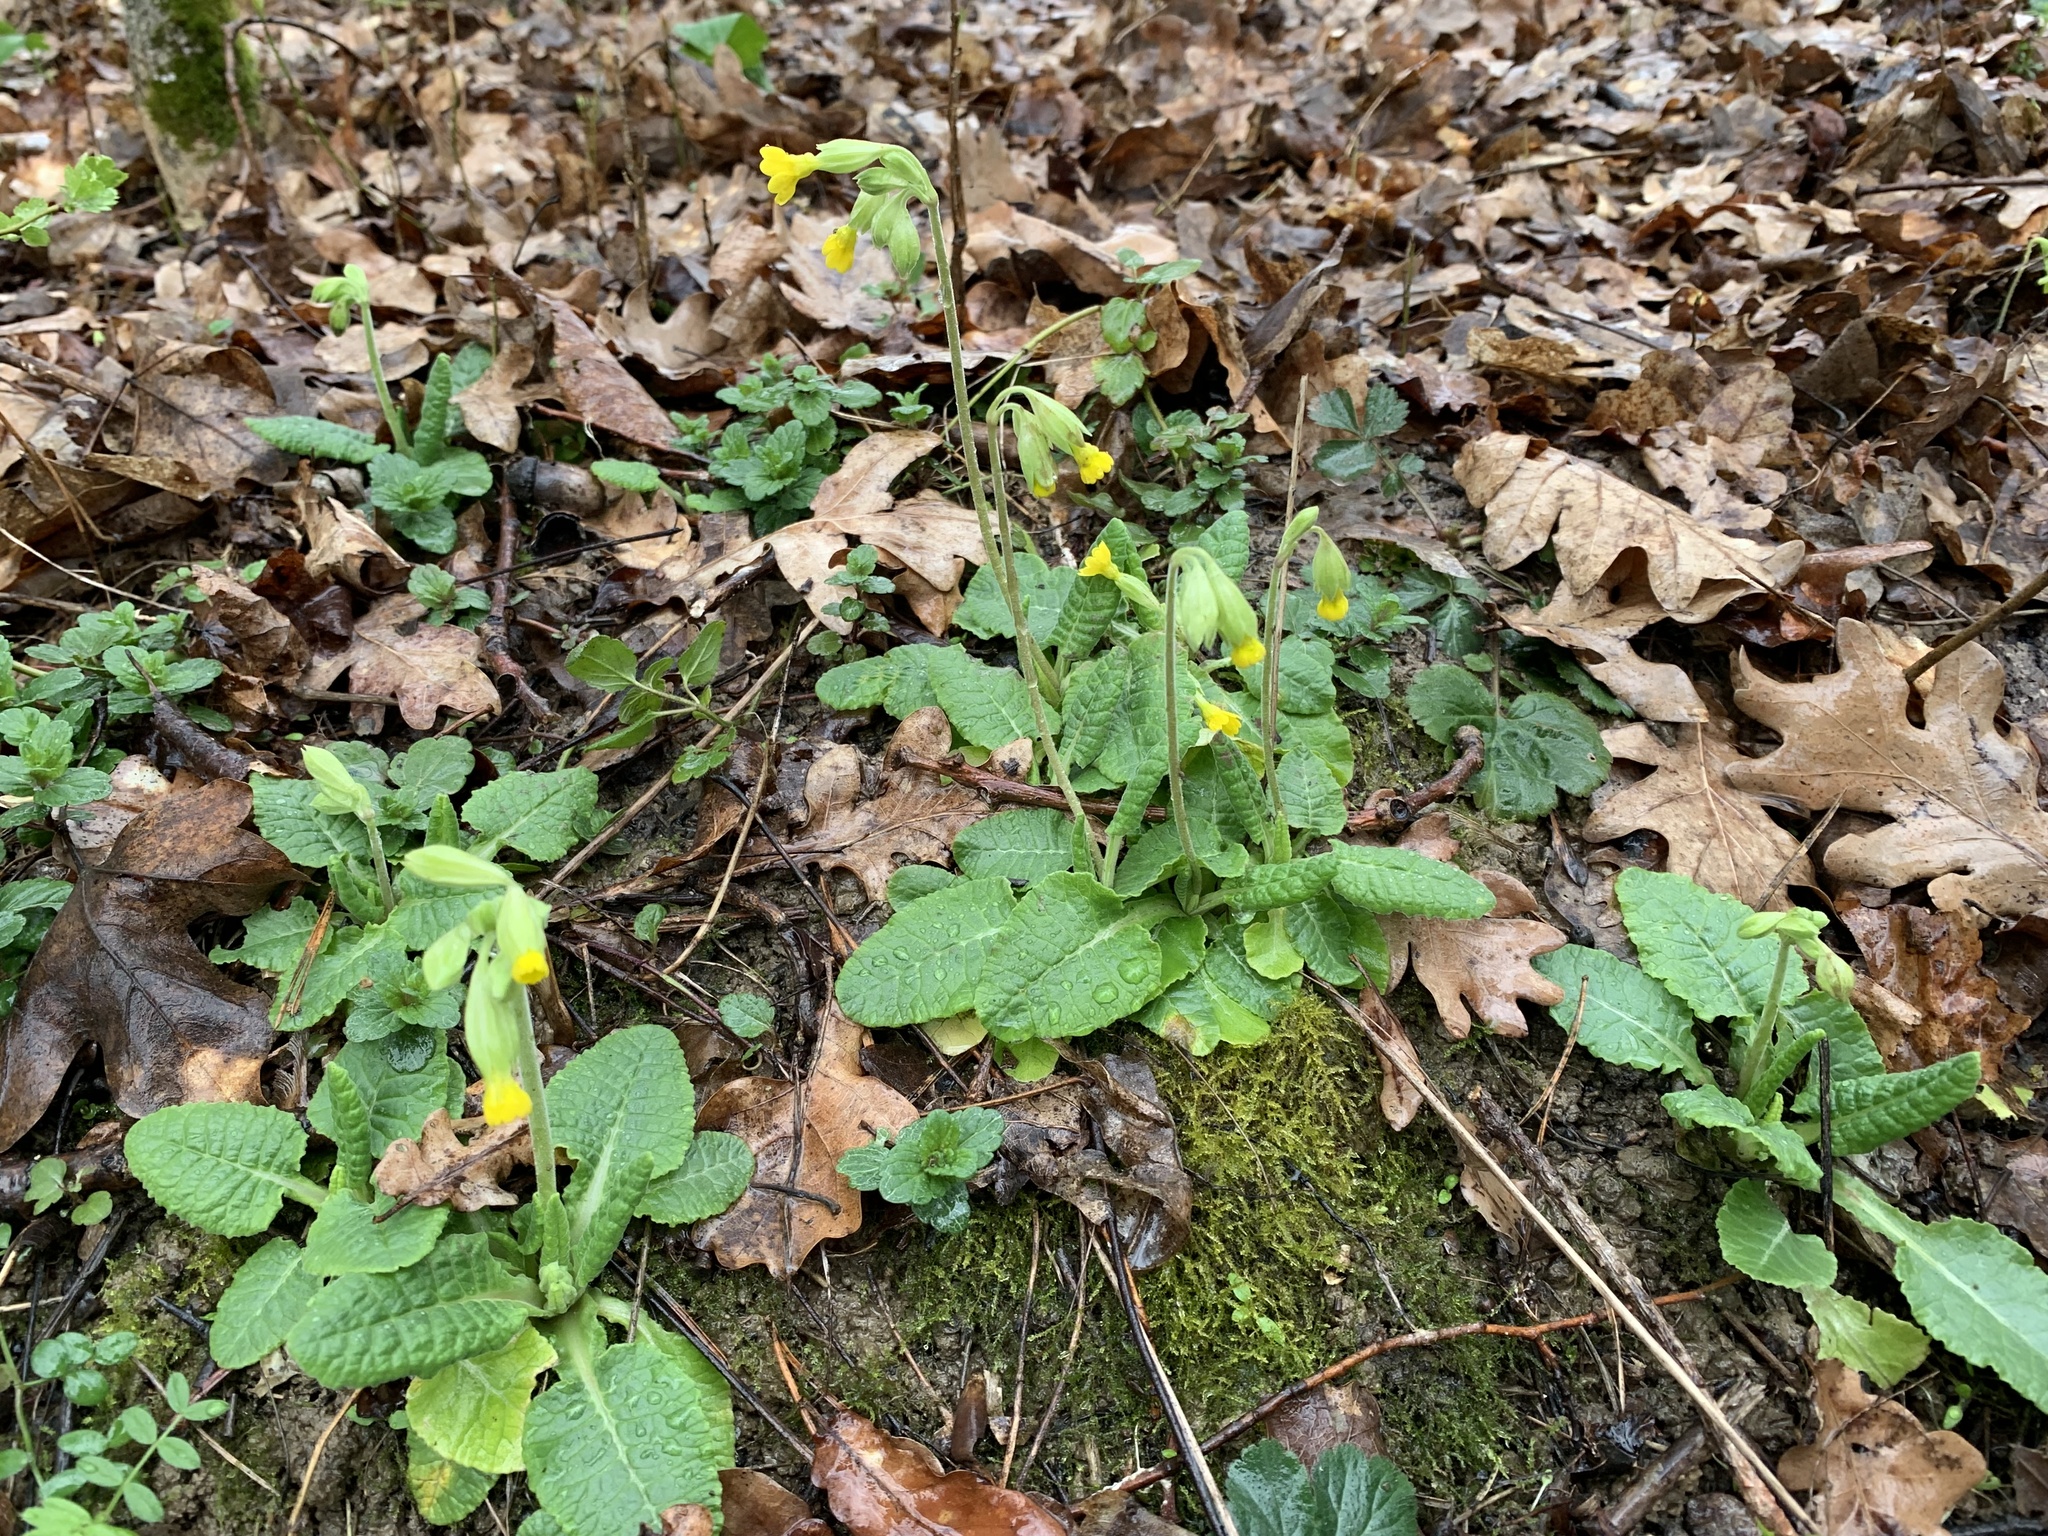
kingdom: Plantae
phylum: Tracheophyta
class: Magnoliopsida
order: Ericales
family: Primulaceae
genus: Primula
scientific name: Primula veris
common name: Cowslip
